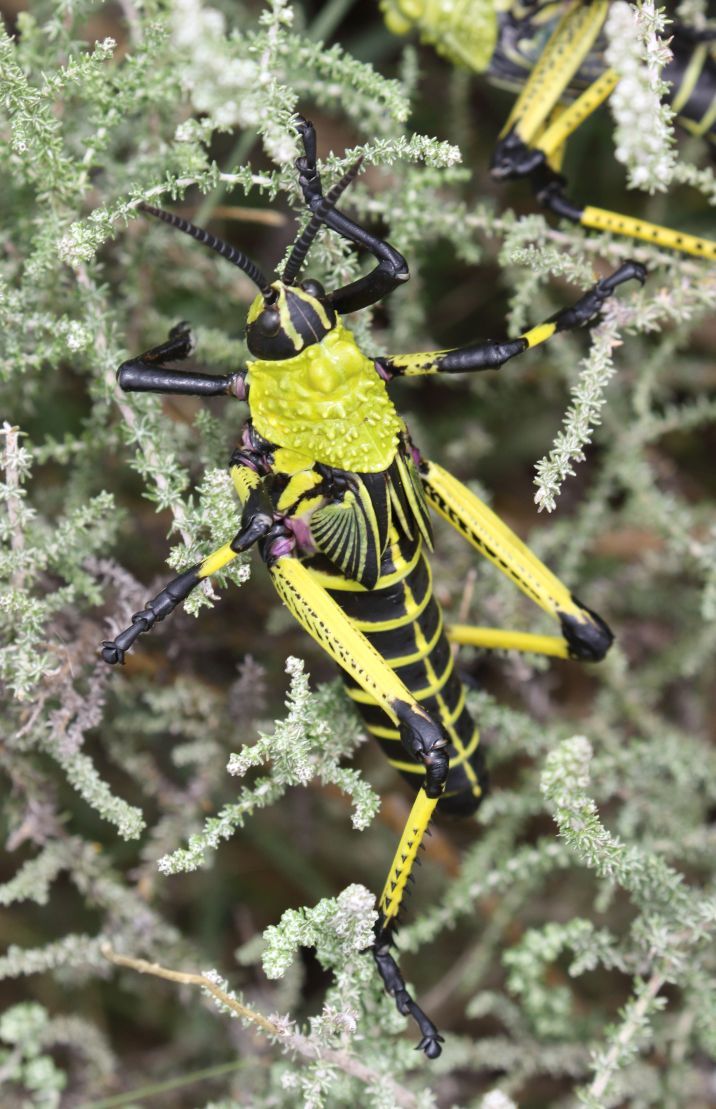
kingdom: Animalia
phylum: Arthropoda
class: Insecta
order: Orthoptera
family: Pyrgomorphidae
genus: Phymateus
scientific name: Phymateus leprosus
